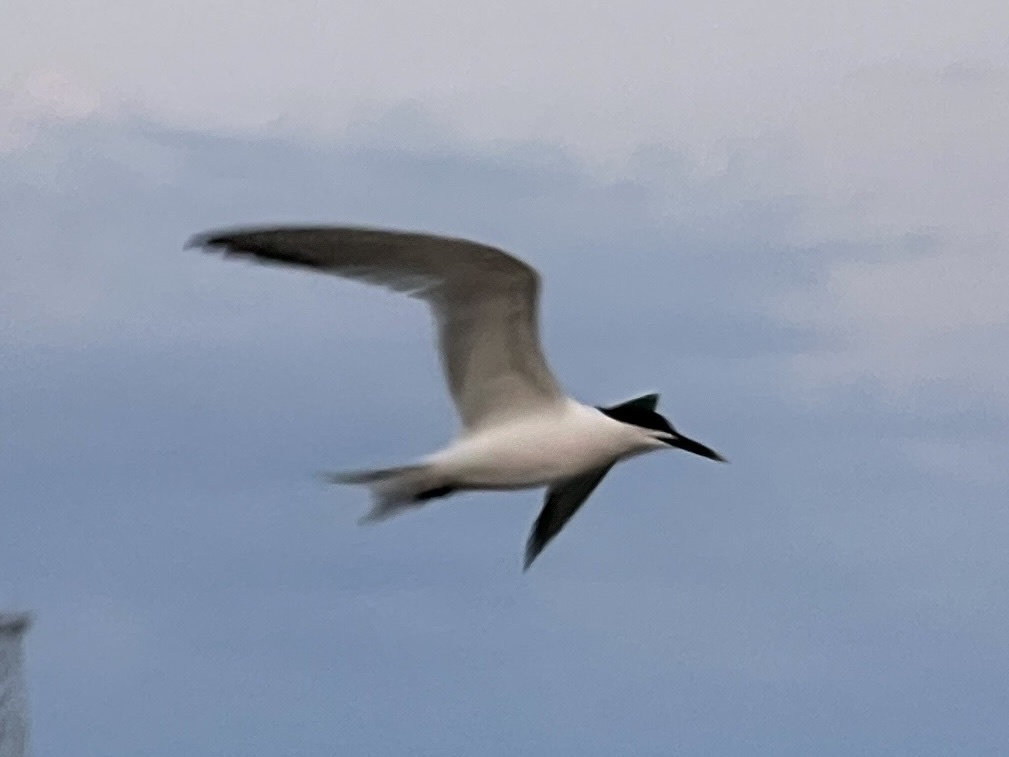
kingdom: Animalia
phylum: Chordata
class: Aves
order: Charadriiformes
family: Laridae
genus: Thalasseus
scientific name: Thalasseus sandvicensis
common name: Sandwich tern
